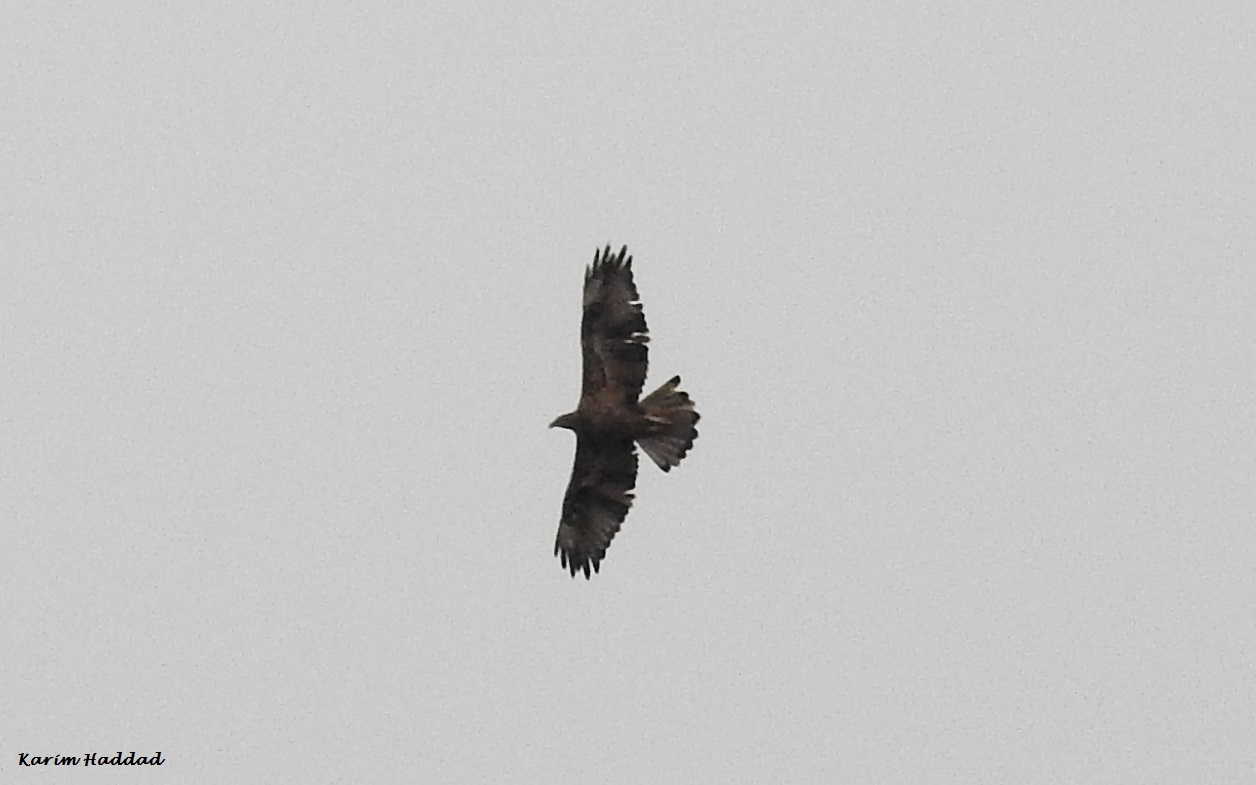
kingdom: Animalia
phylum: Chordata
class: Aves
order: Accipitriformes
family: Accipitridae
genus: Aquila
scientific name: Aquila fasciata
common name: Bonelli's eagle
